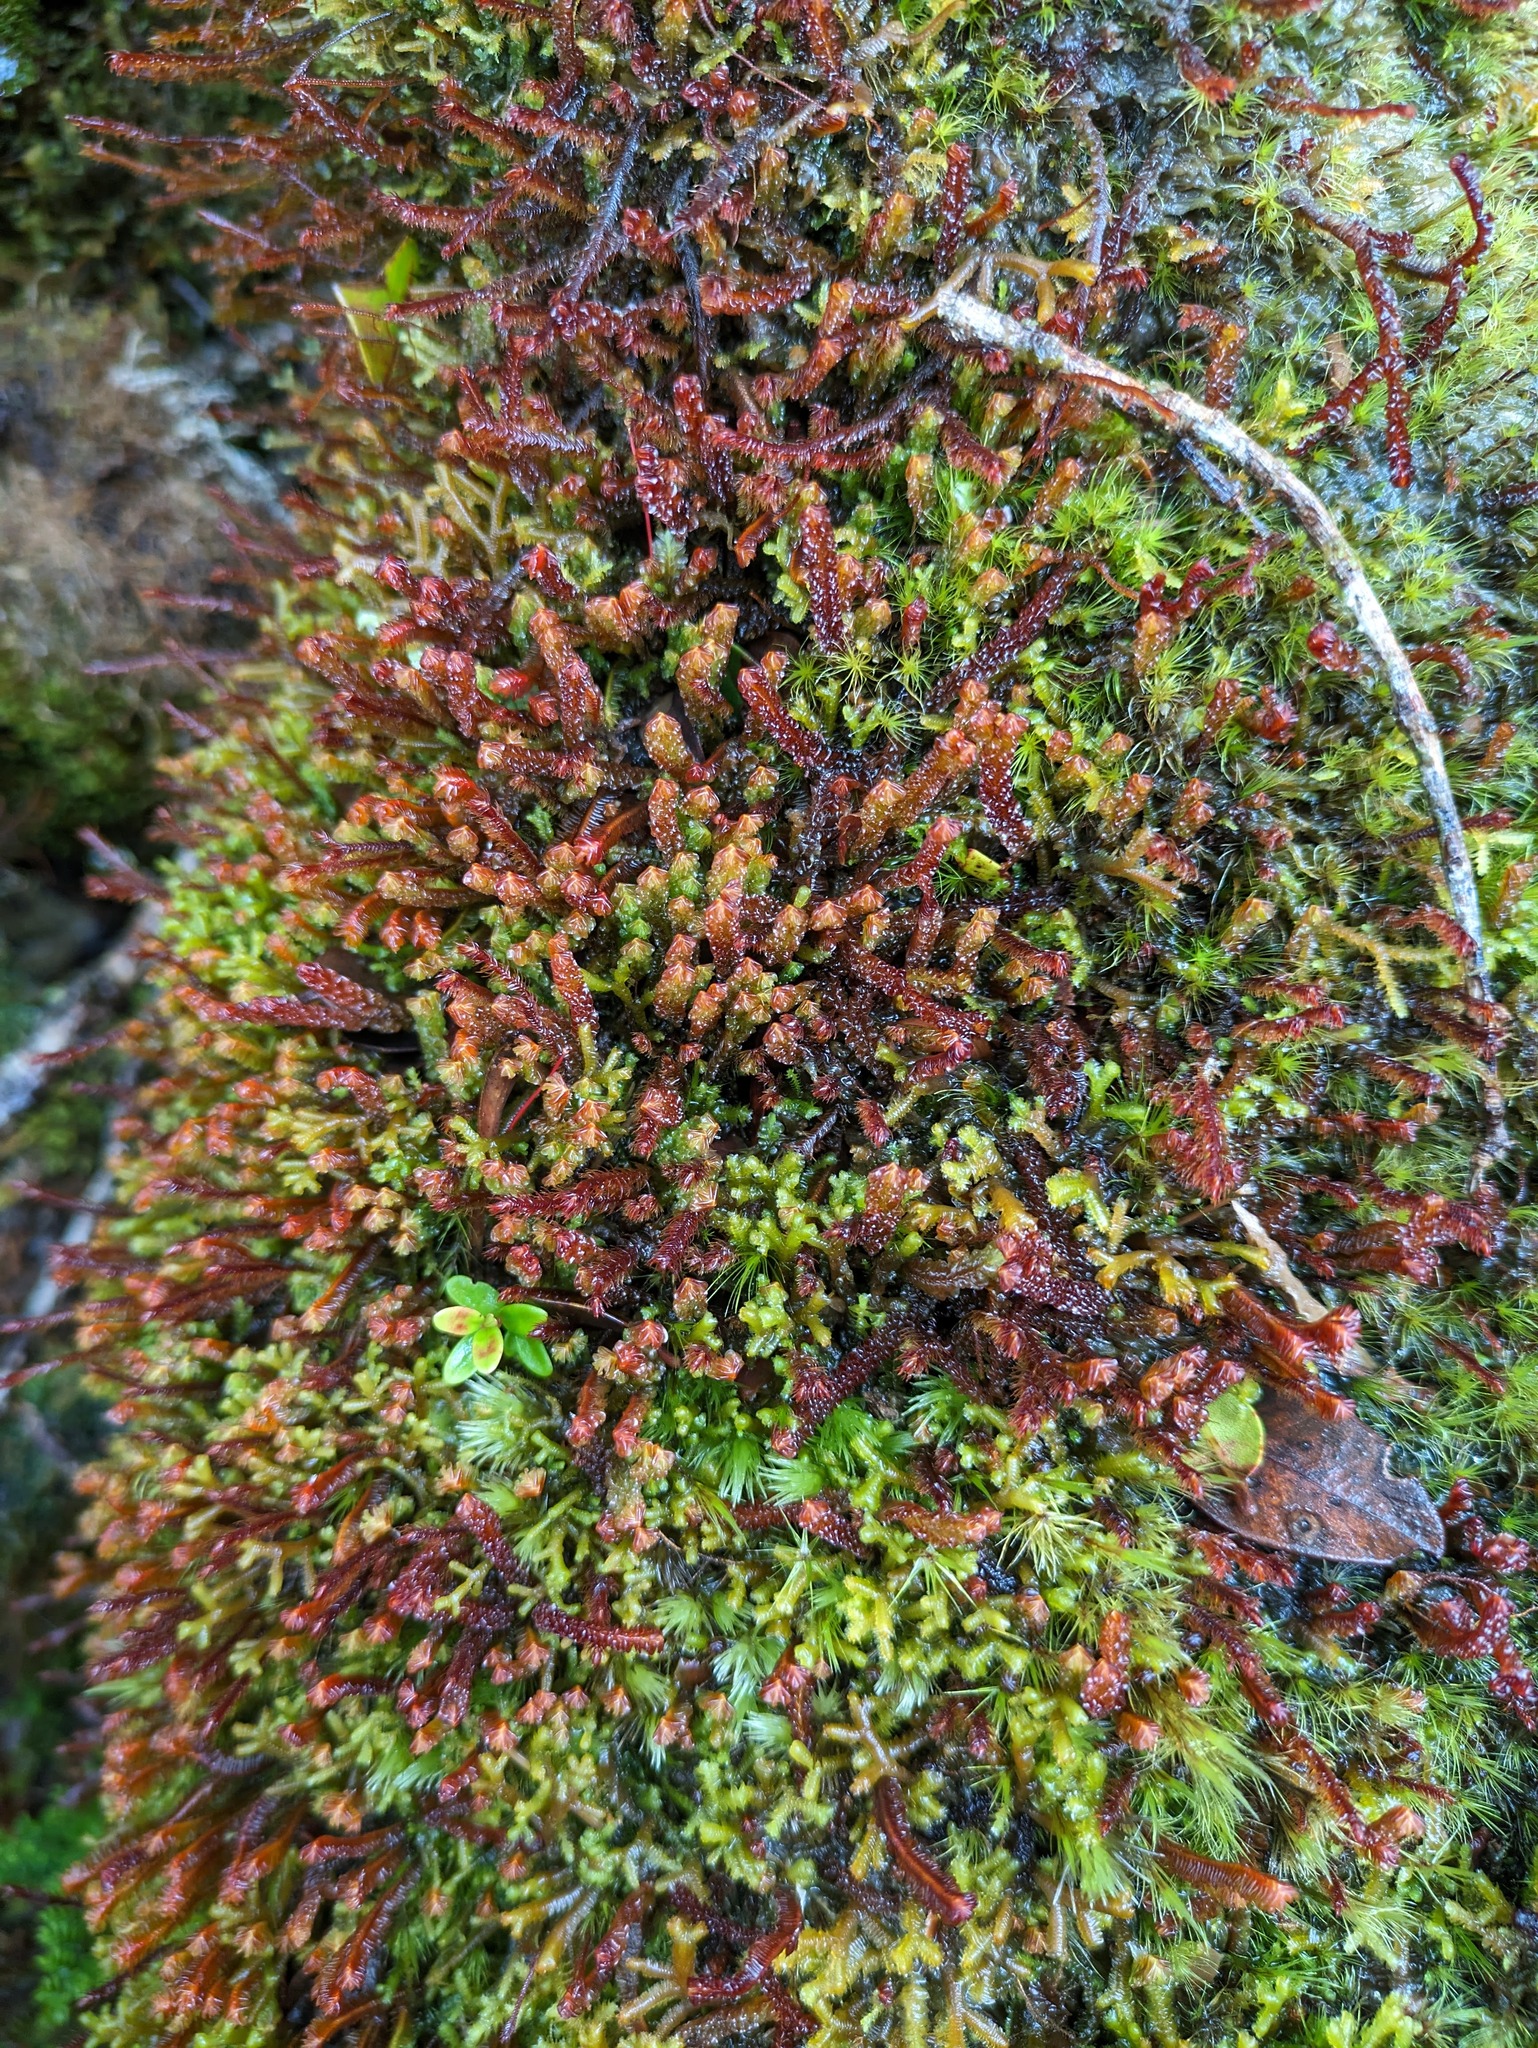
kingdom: Plantae
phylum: Marchantiophyta
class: Jungermanniopsida
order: Jungermanniales
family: Adelanthaceae
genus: Cuspidatula
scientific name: Cuspidatula robusta
